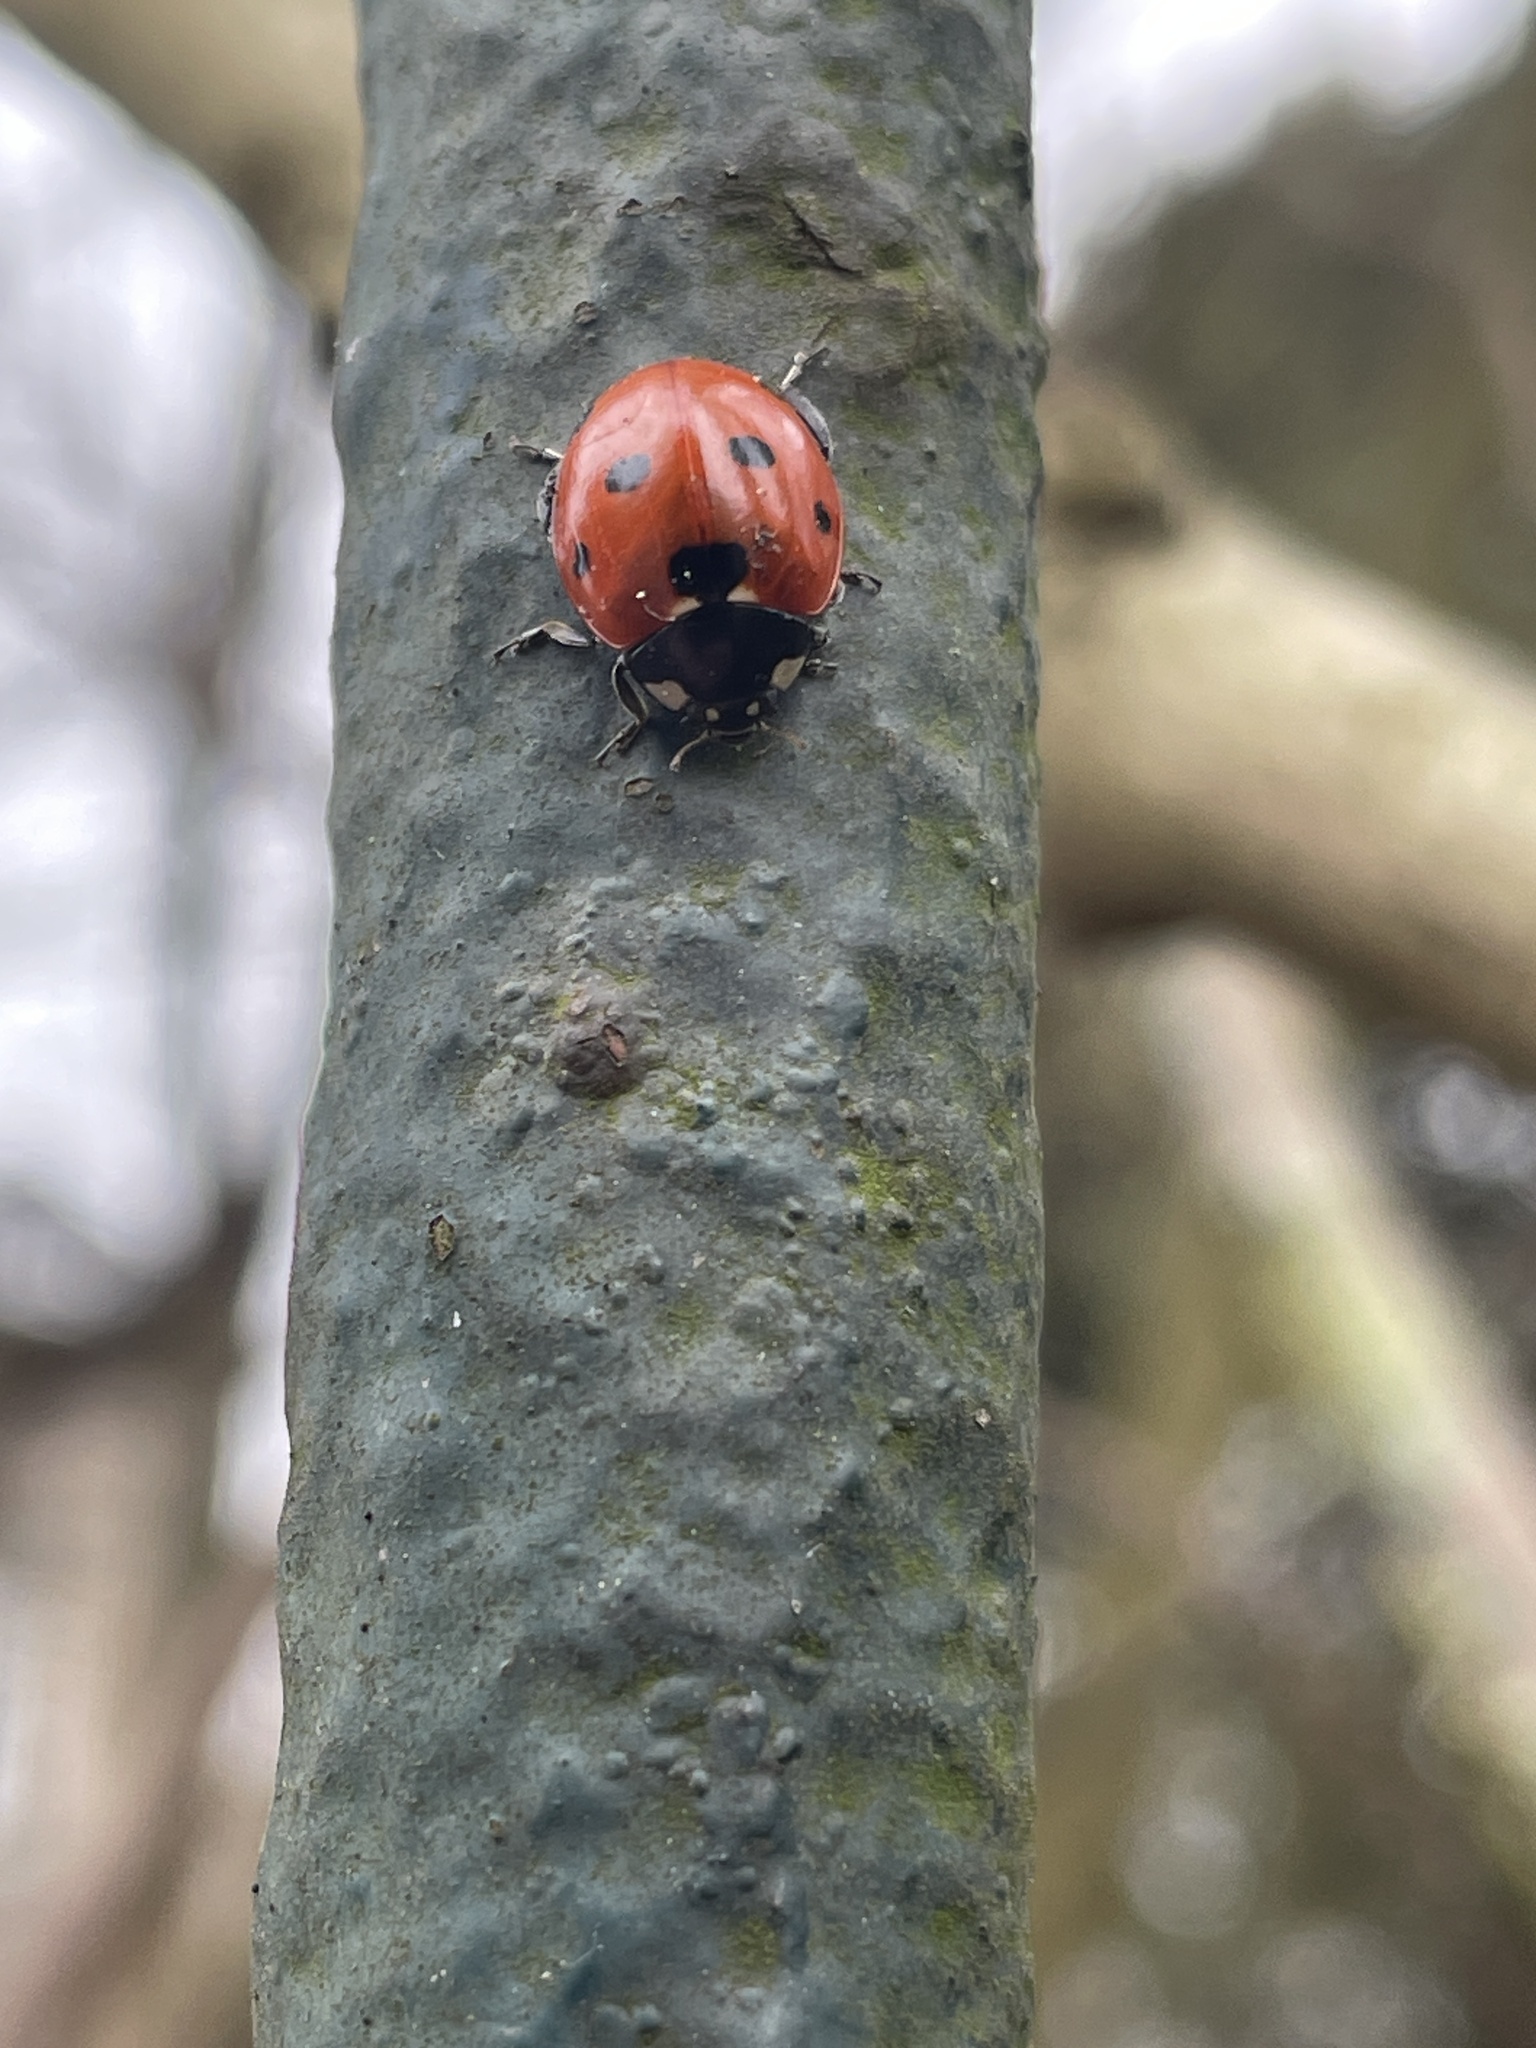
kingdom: Animalia
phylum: Arthropoda
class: Insecta
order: Coleoptera
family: Coccinellidae
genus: Coccinella
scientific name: Coccinella septempunctata
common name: Sevenspotted lady beetle
